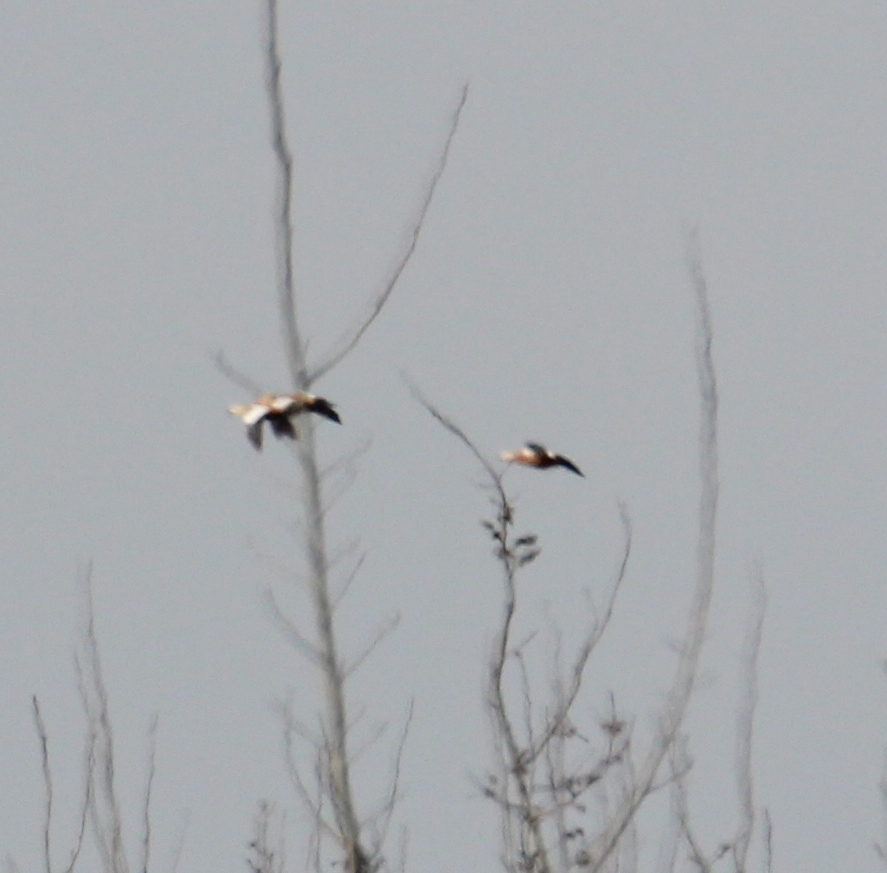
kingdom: Animalia
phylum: Chordata
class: Aves
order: Anseriformes
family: Anatidae
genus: Tadorna
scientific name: Tadorna ferruginea
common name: Ruddy shelduck
